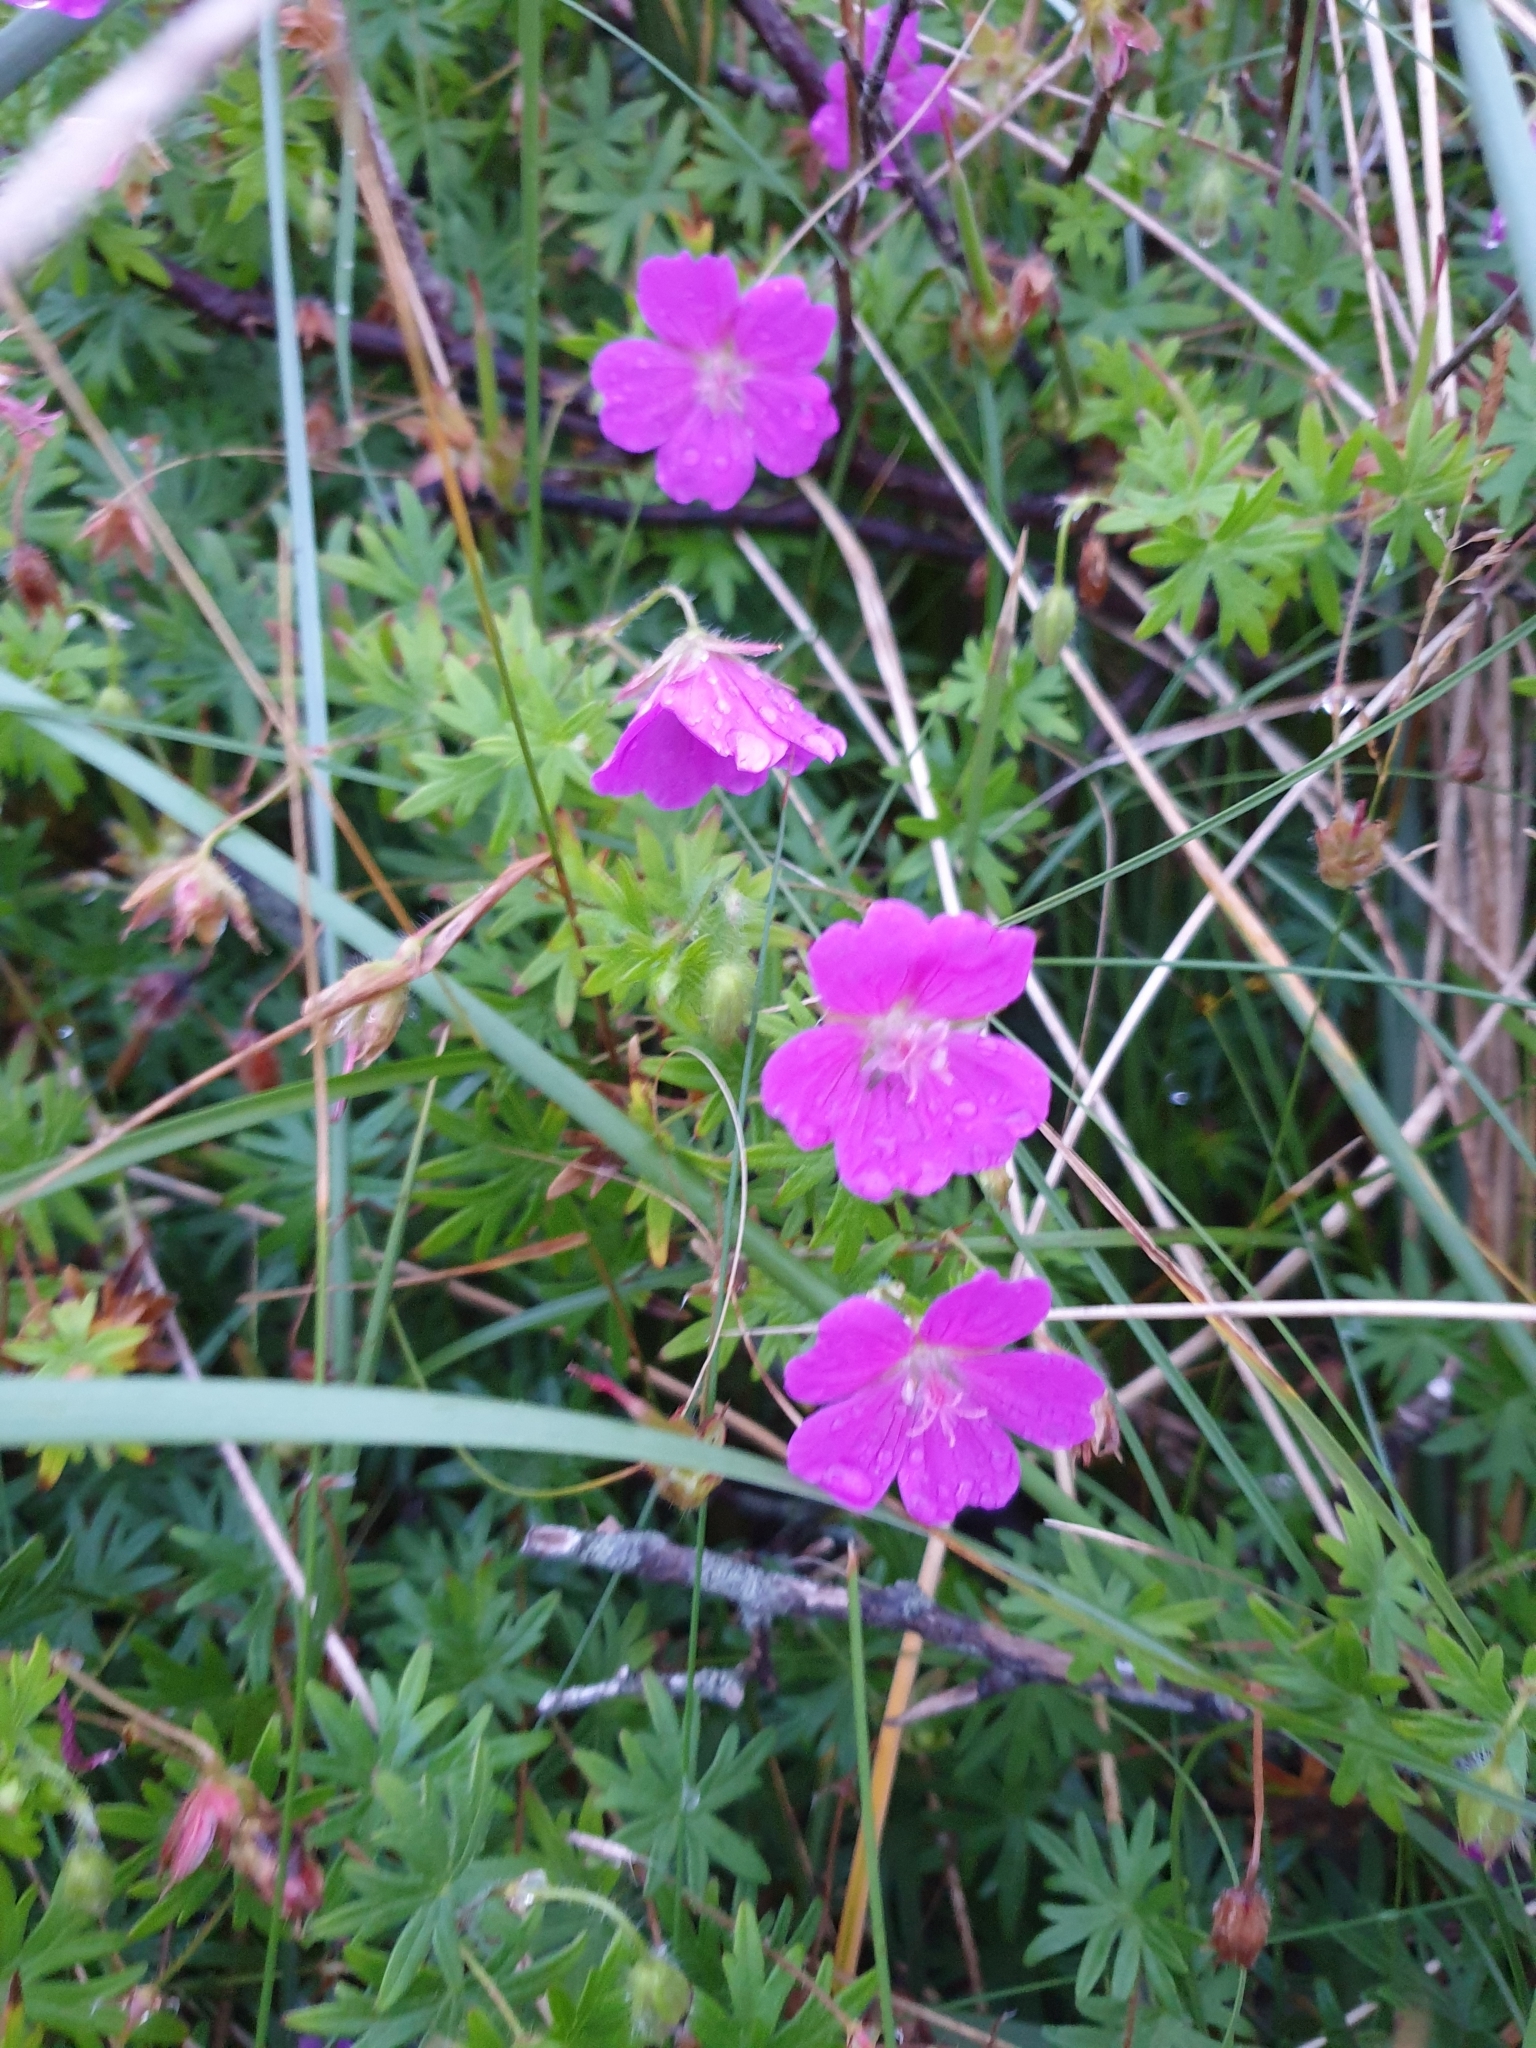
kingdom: Plantae
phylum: Tracheophyta
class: Magnoliopsida
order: Geraniales
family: Geraniaceae
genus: Geranium
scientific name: Geranium sanguineum
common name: Bloody crane's-bill
